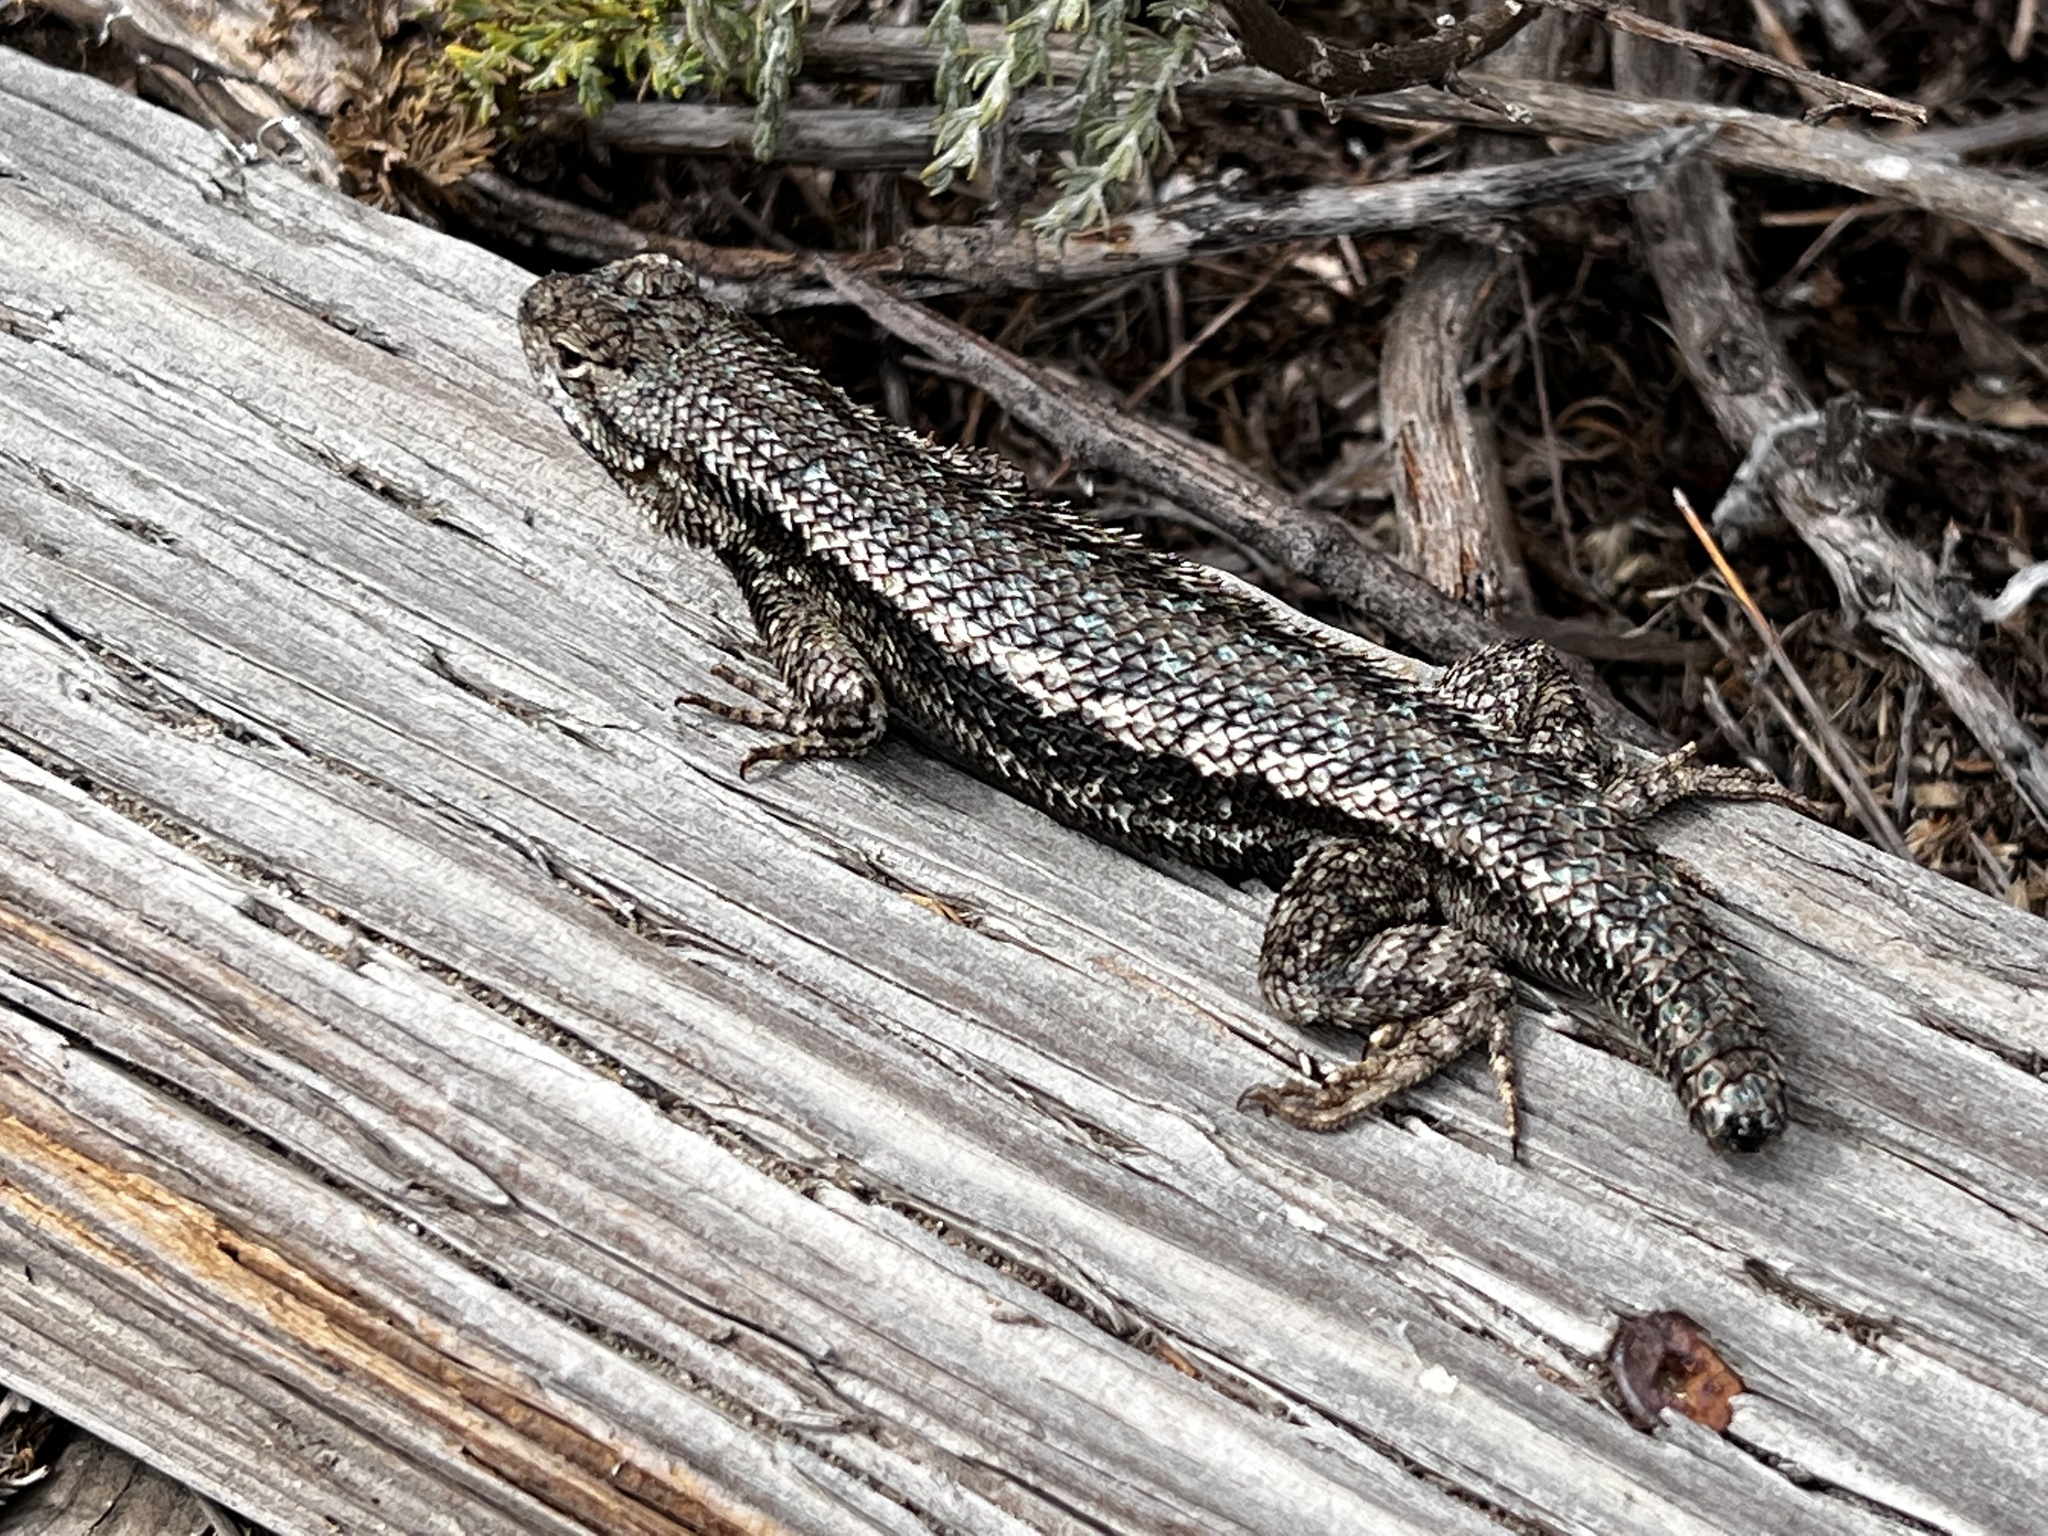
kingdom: Animalia
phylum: Chordata
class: Squamata
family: Phrynosomatidae
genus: Sceloporus
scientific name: Sceloporus occidentalis
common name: Western fence lizard
